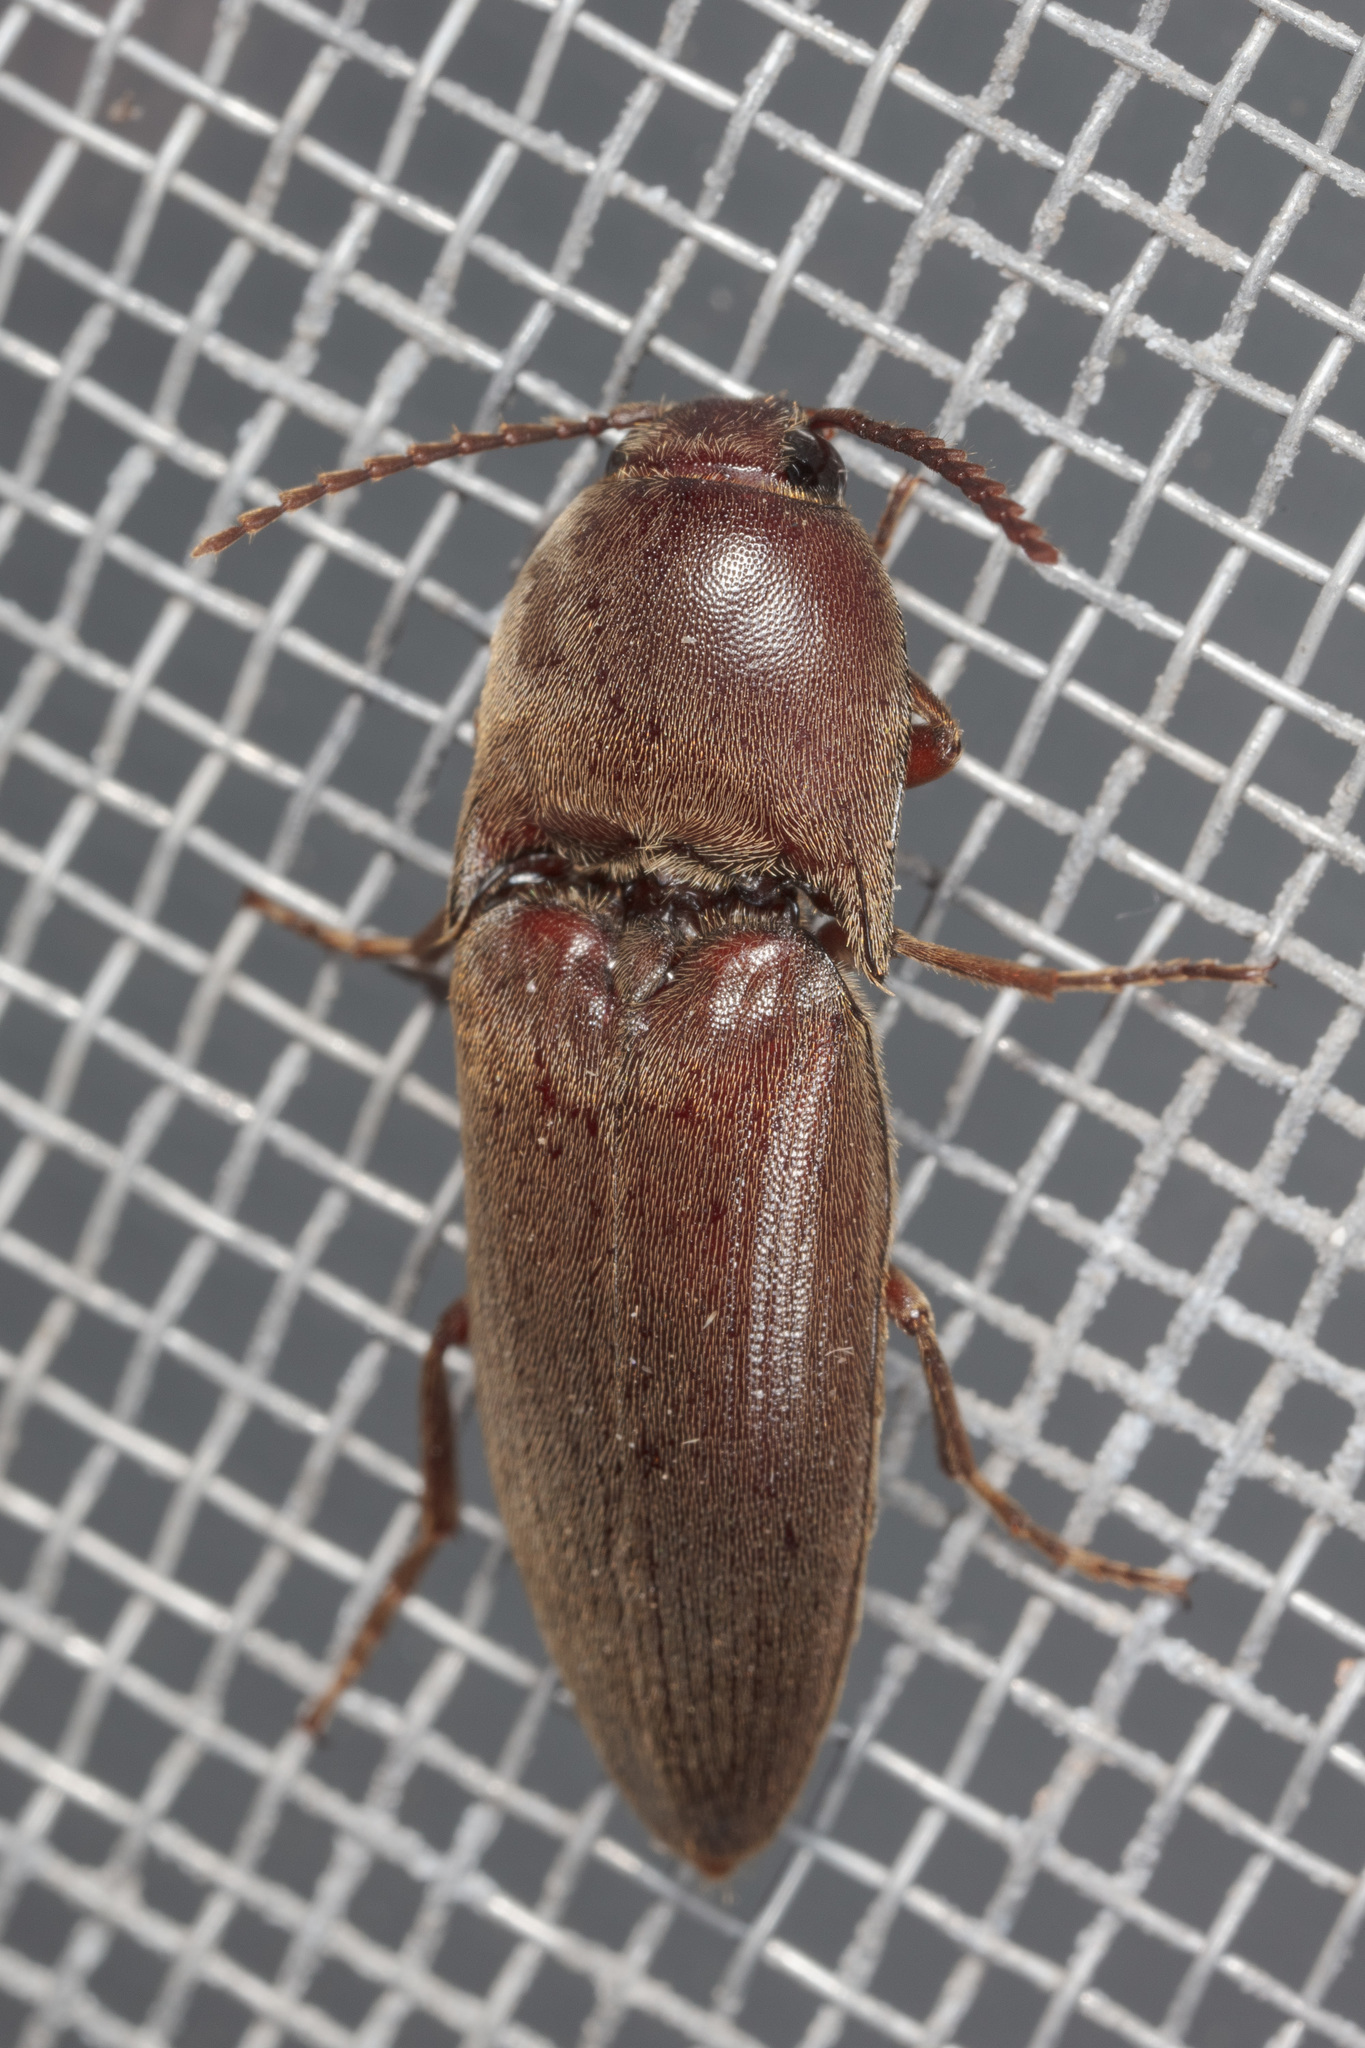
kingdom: Animalia
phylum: Arthropoda
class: Insecta
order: Coleoptera
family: Elateridae
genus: Diplostethus
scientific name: Diplostethus
